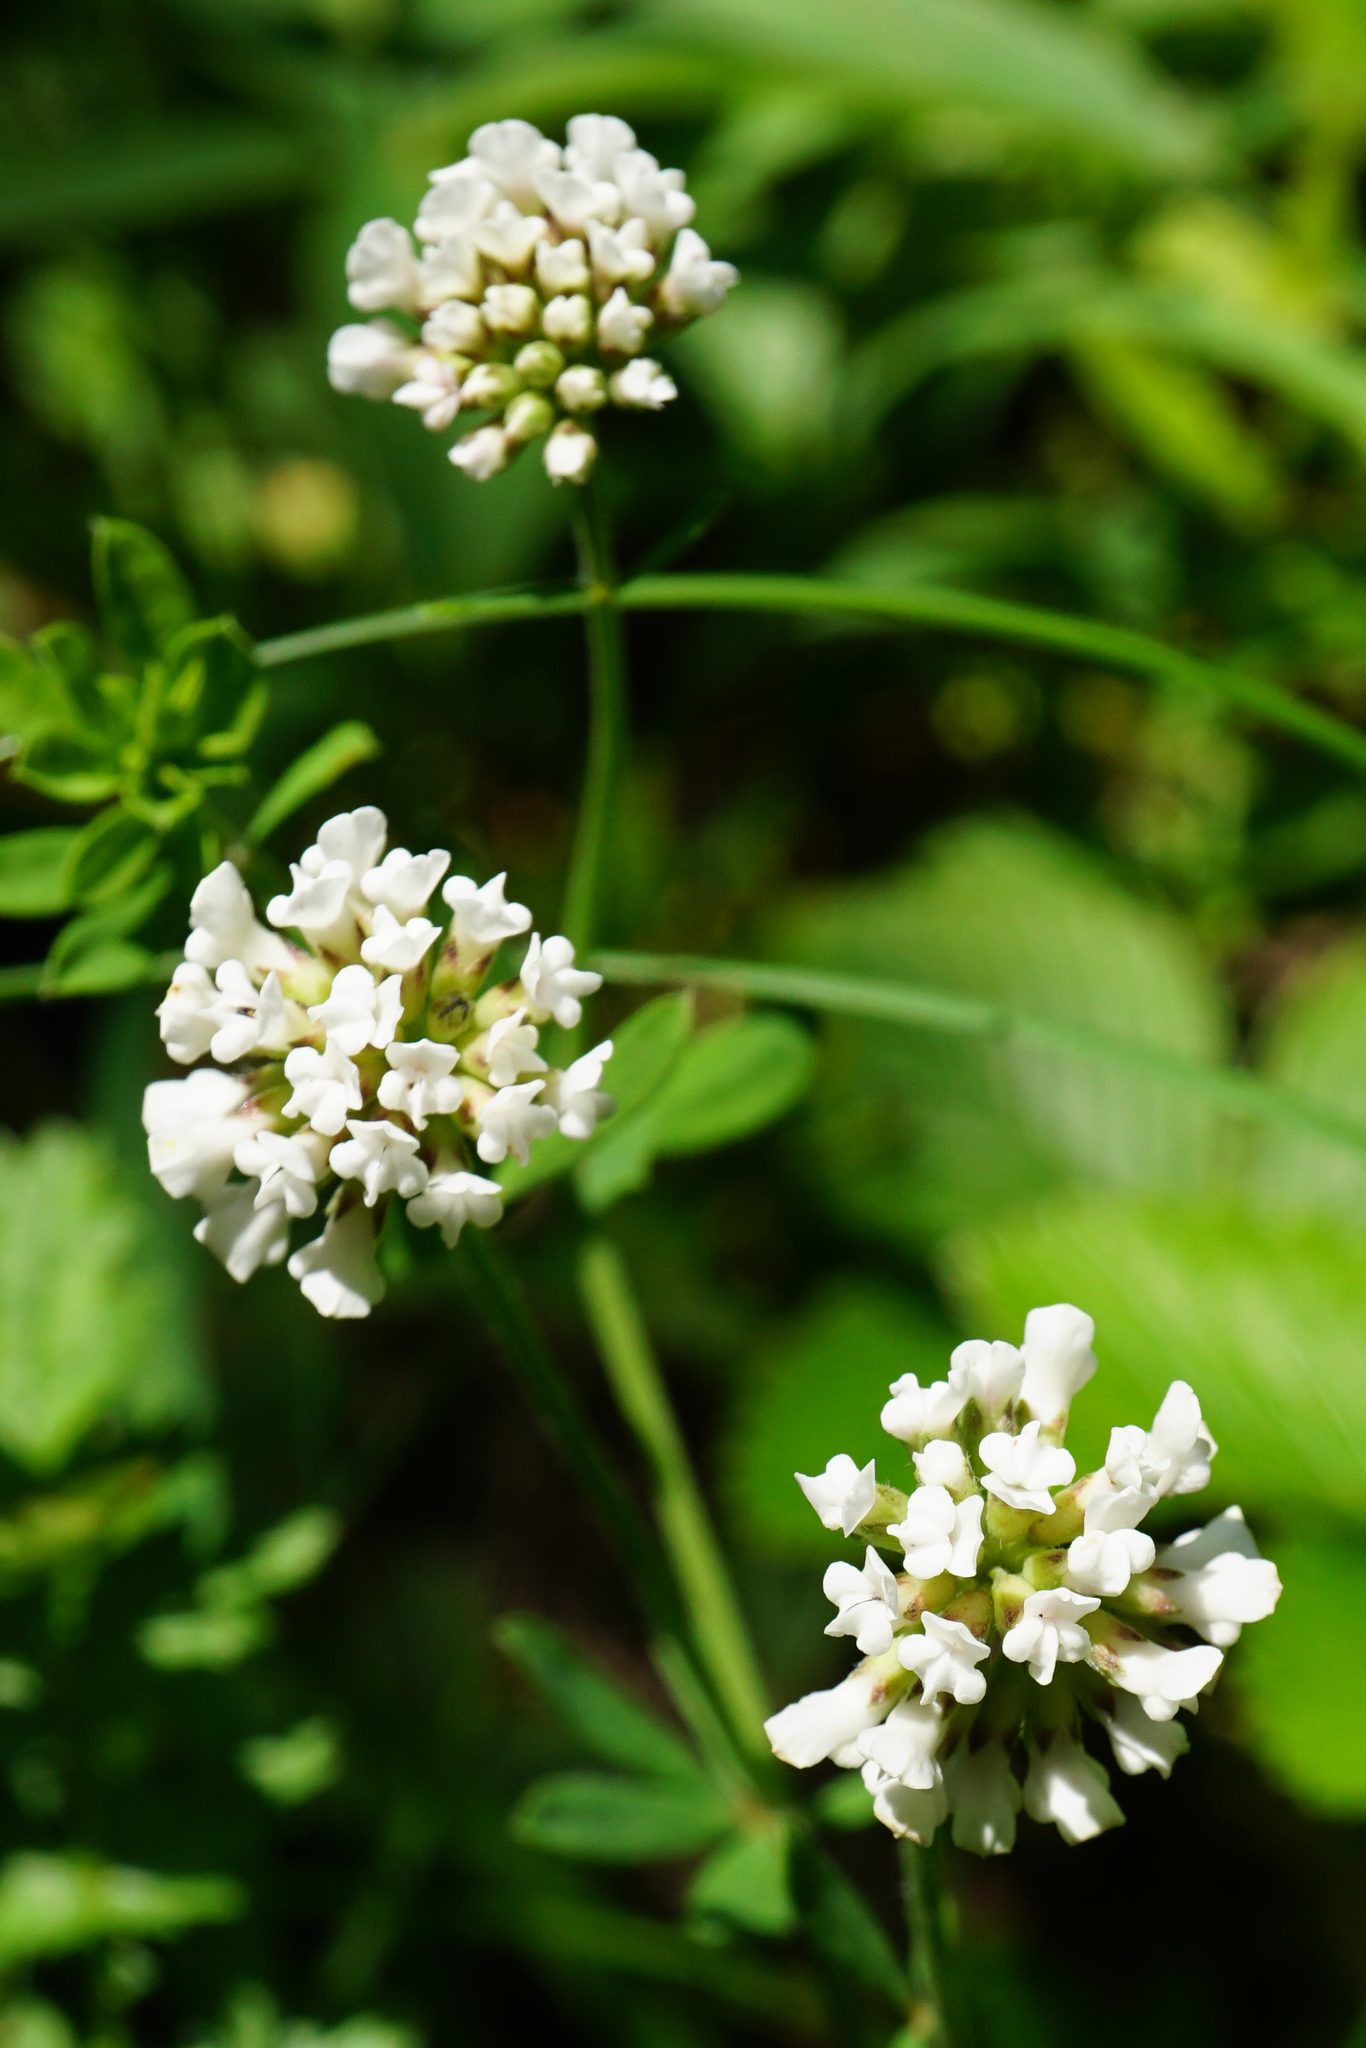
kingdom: Plantae
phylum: Tracheophyta
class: Magnoliopsida
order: Fabales
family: Fabaceae
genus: Lotus
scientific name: Lotus herbaceus
